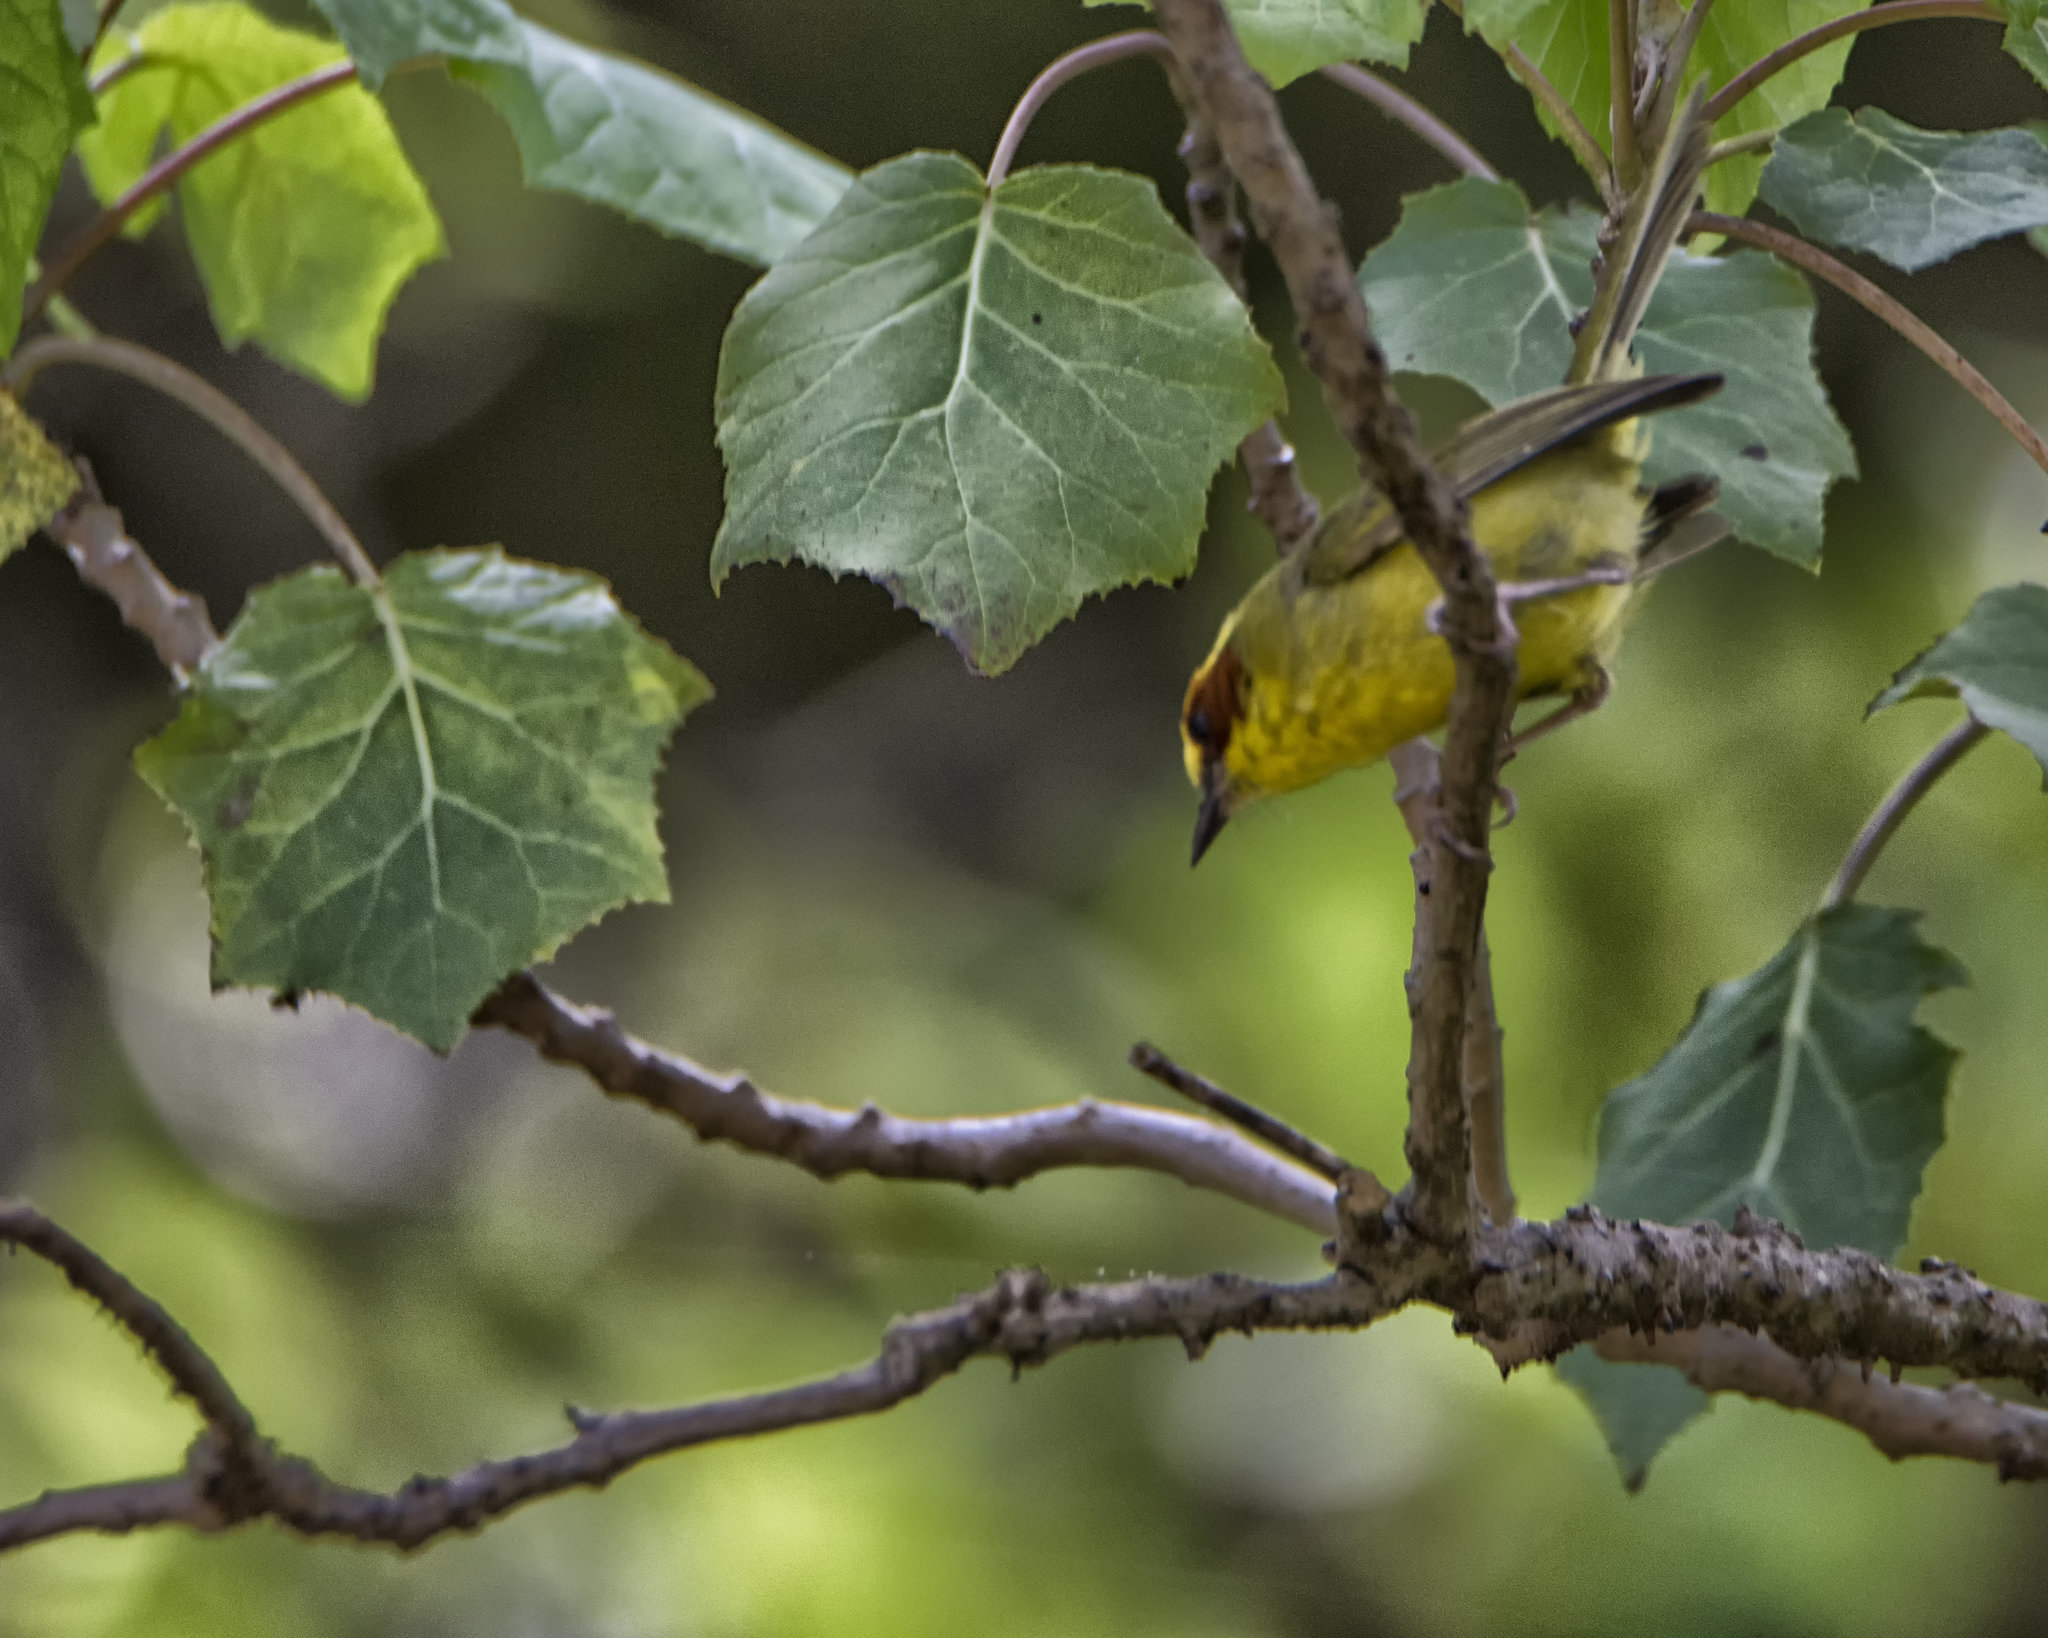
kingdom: Animalia
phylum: Chordata
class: Aves
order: Passeriformes
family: Parulidae
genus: Basileuterus
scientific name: Basileuterus belli
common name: Golden-browed warbler
